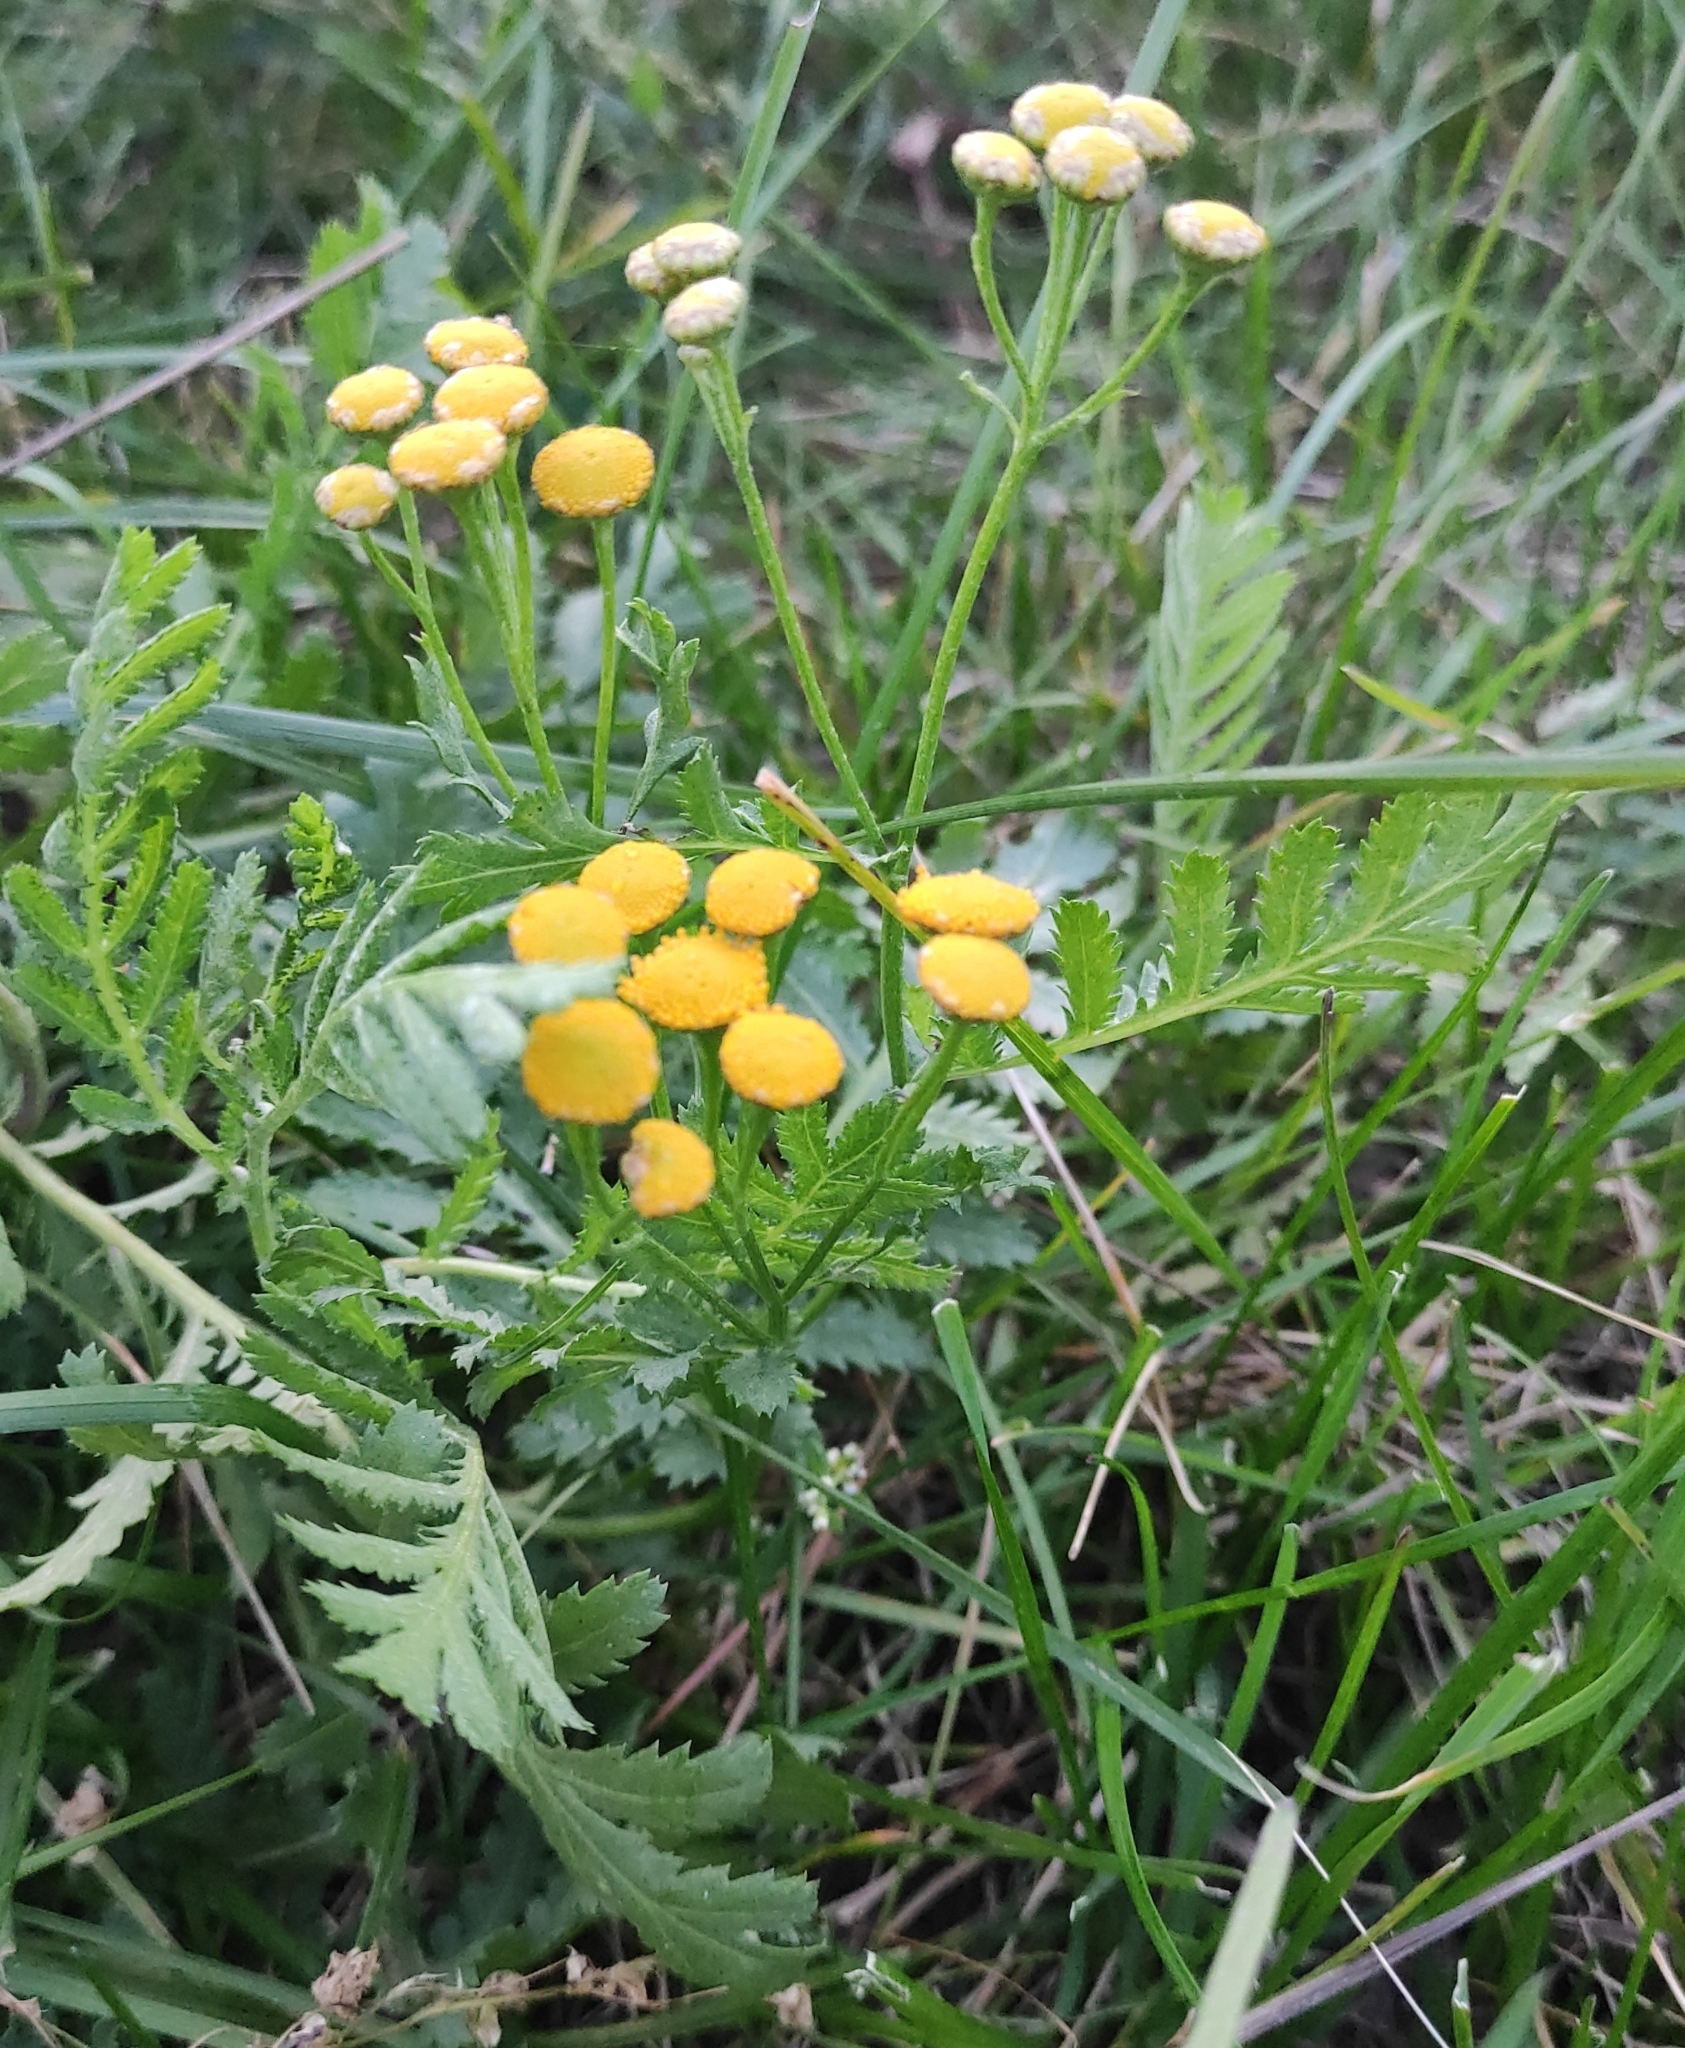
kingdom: Plantae
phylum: Tracheophyta
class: Magnoliopsida
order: Asterales
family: Asteraceae
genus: Tanacetum
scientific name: Tanacetum vulgare
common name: Common tansy
